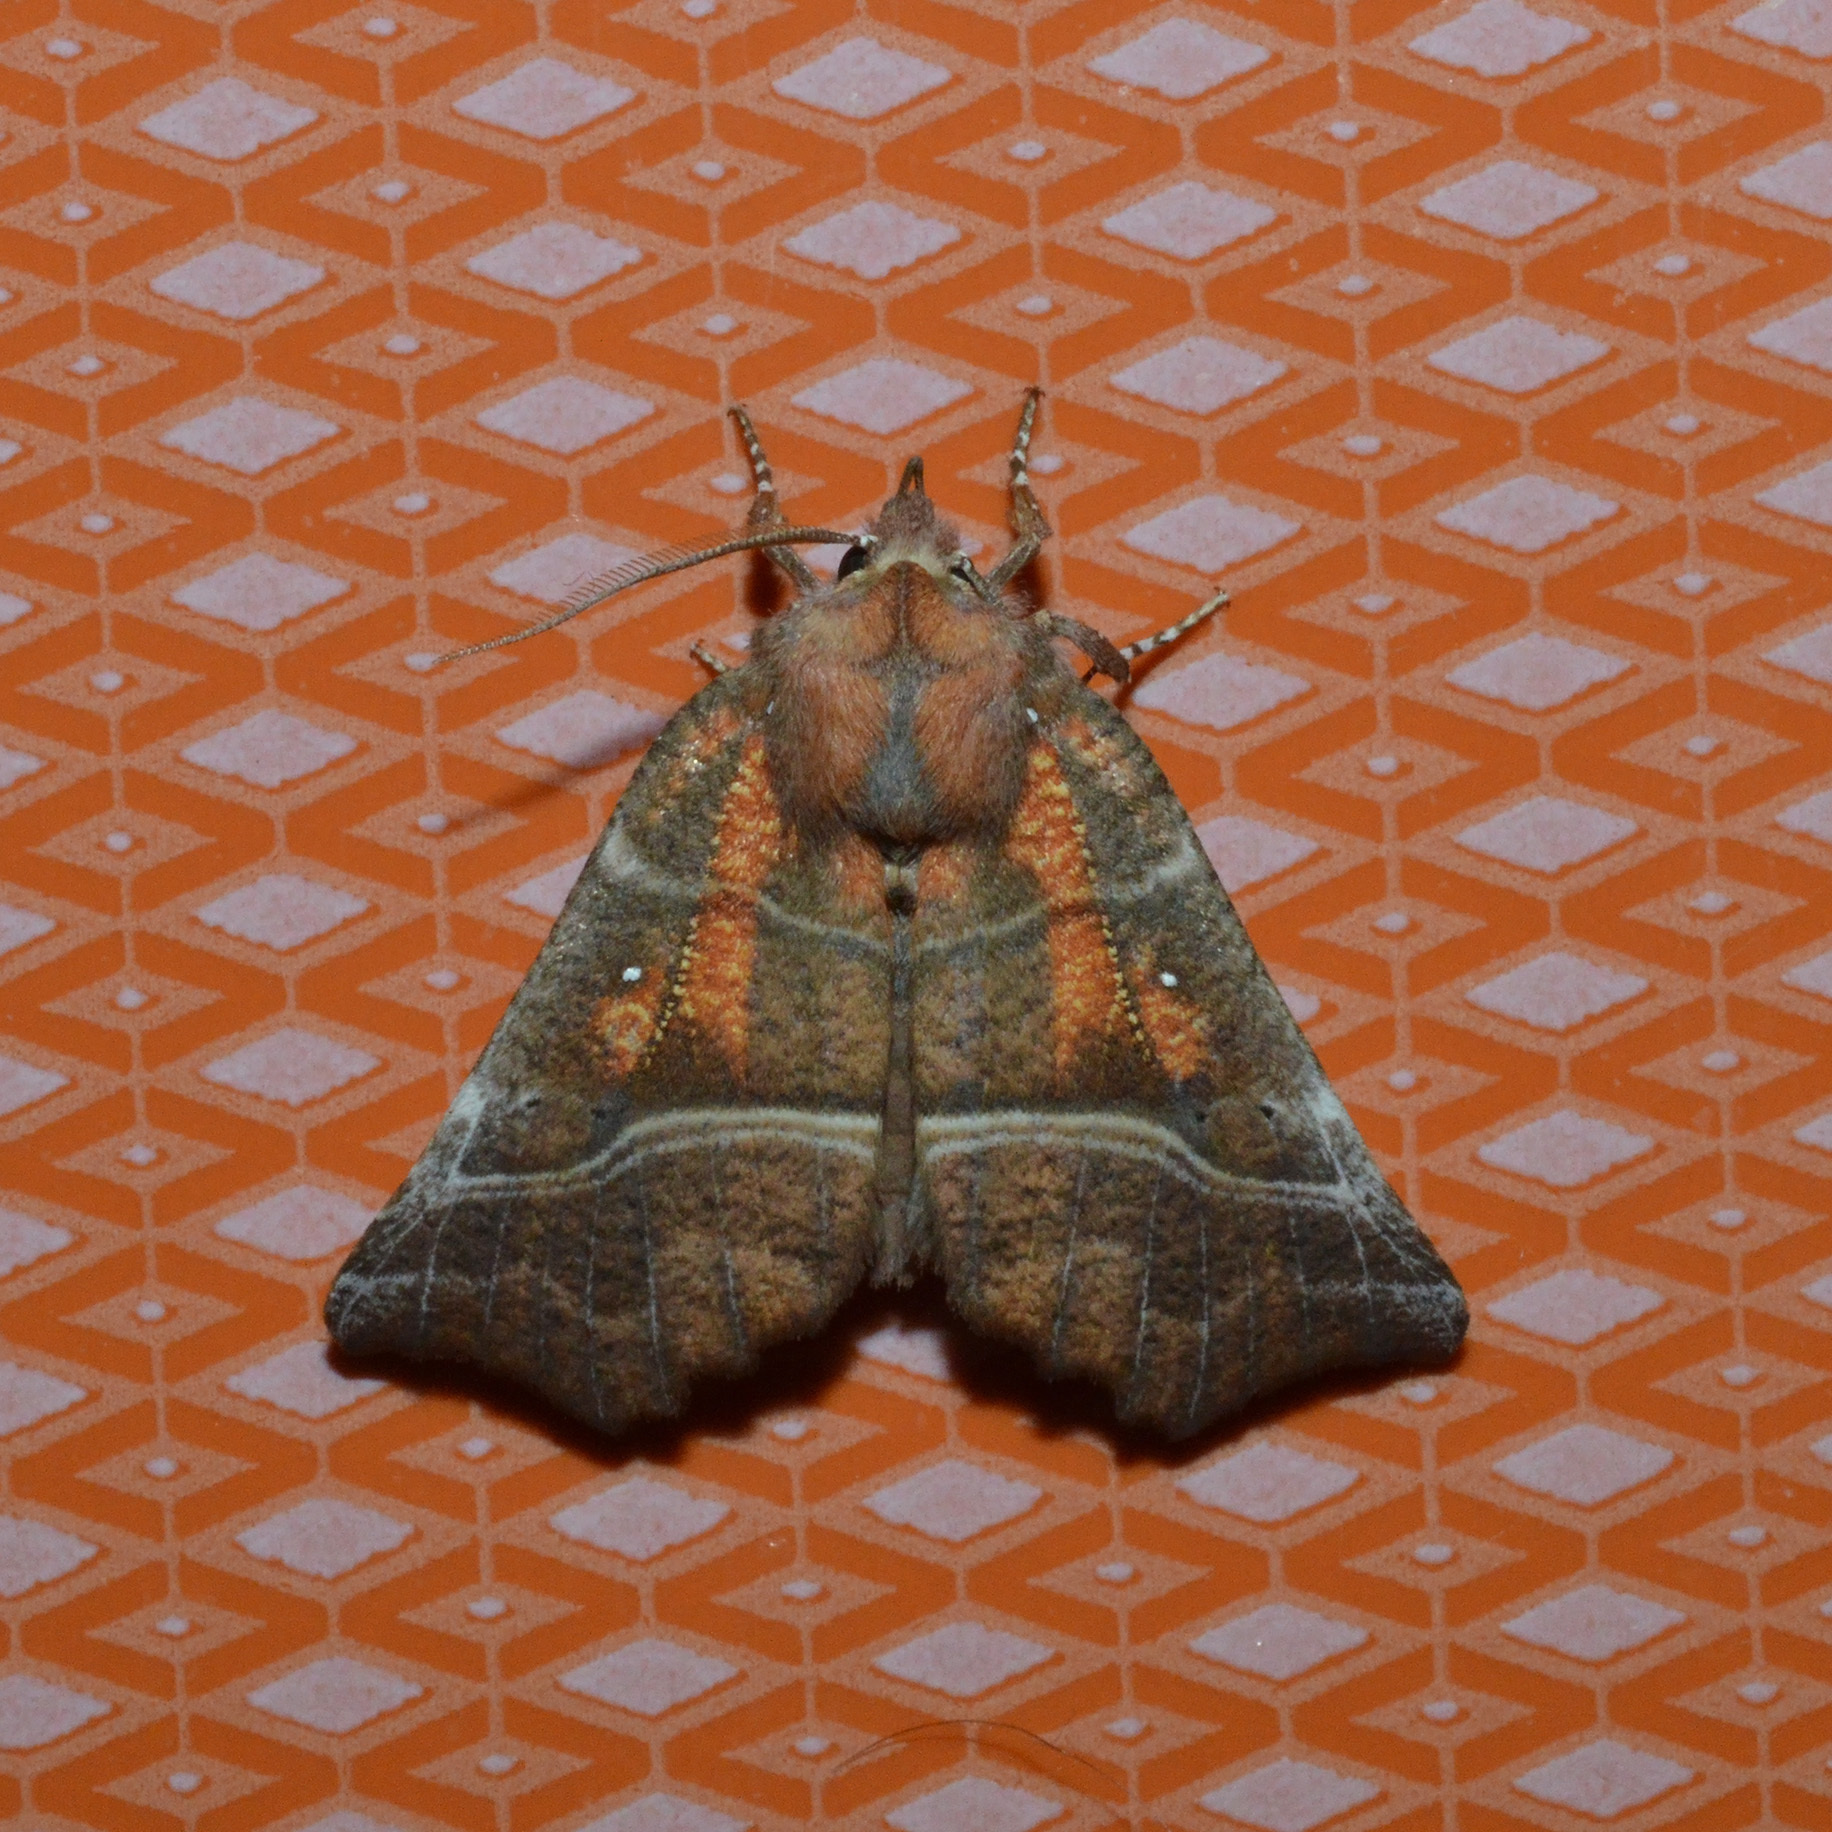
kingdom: Animalia
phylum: Arthropoda
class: Insecta
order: Lepidoptera
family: Erebidae
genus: Scoliopteryx
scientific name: Scoliopteryx libatrix
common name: Herald
